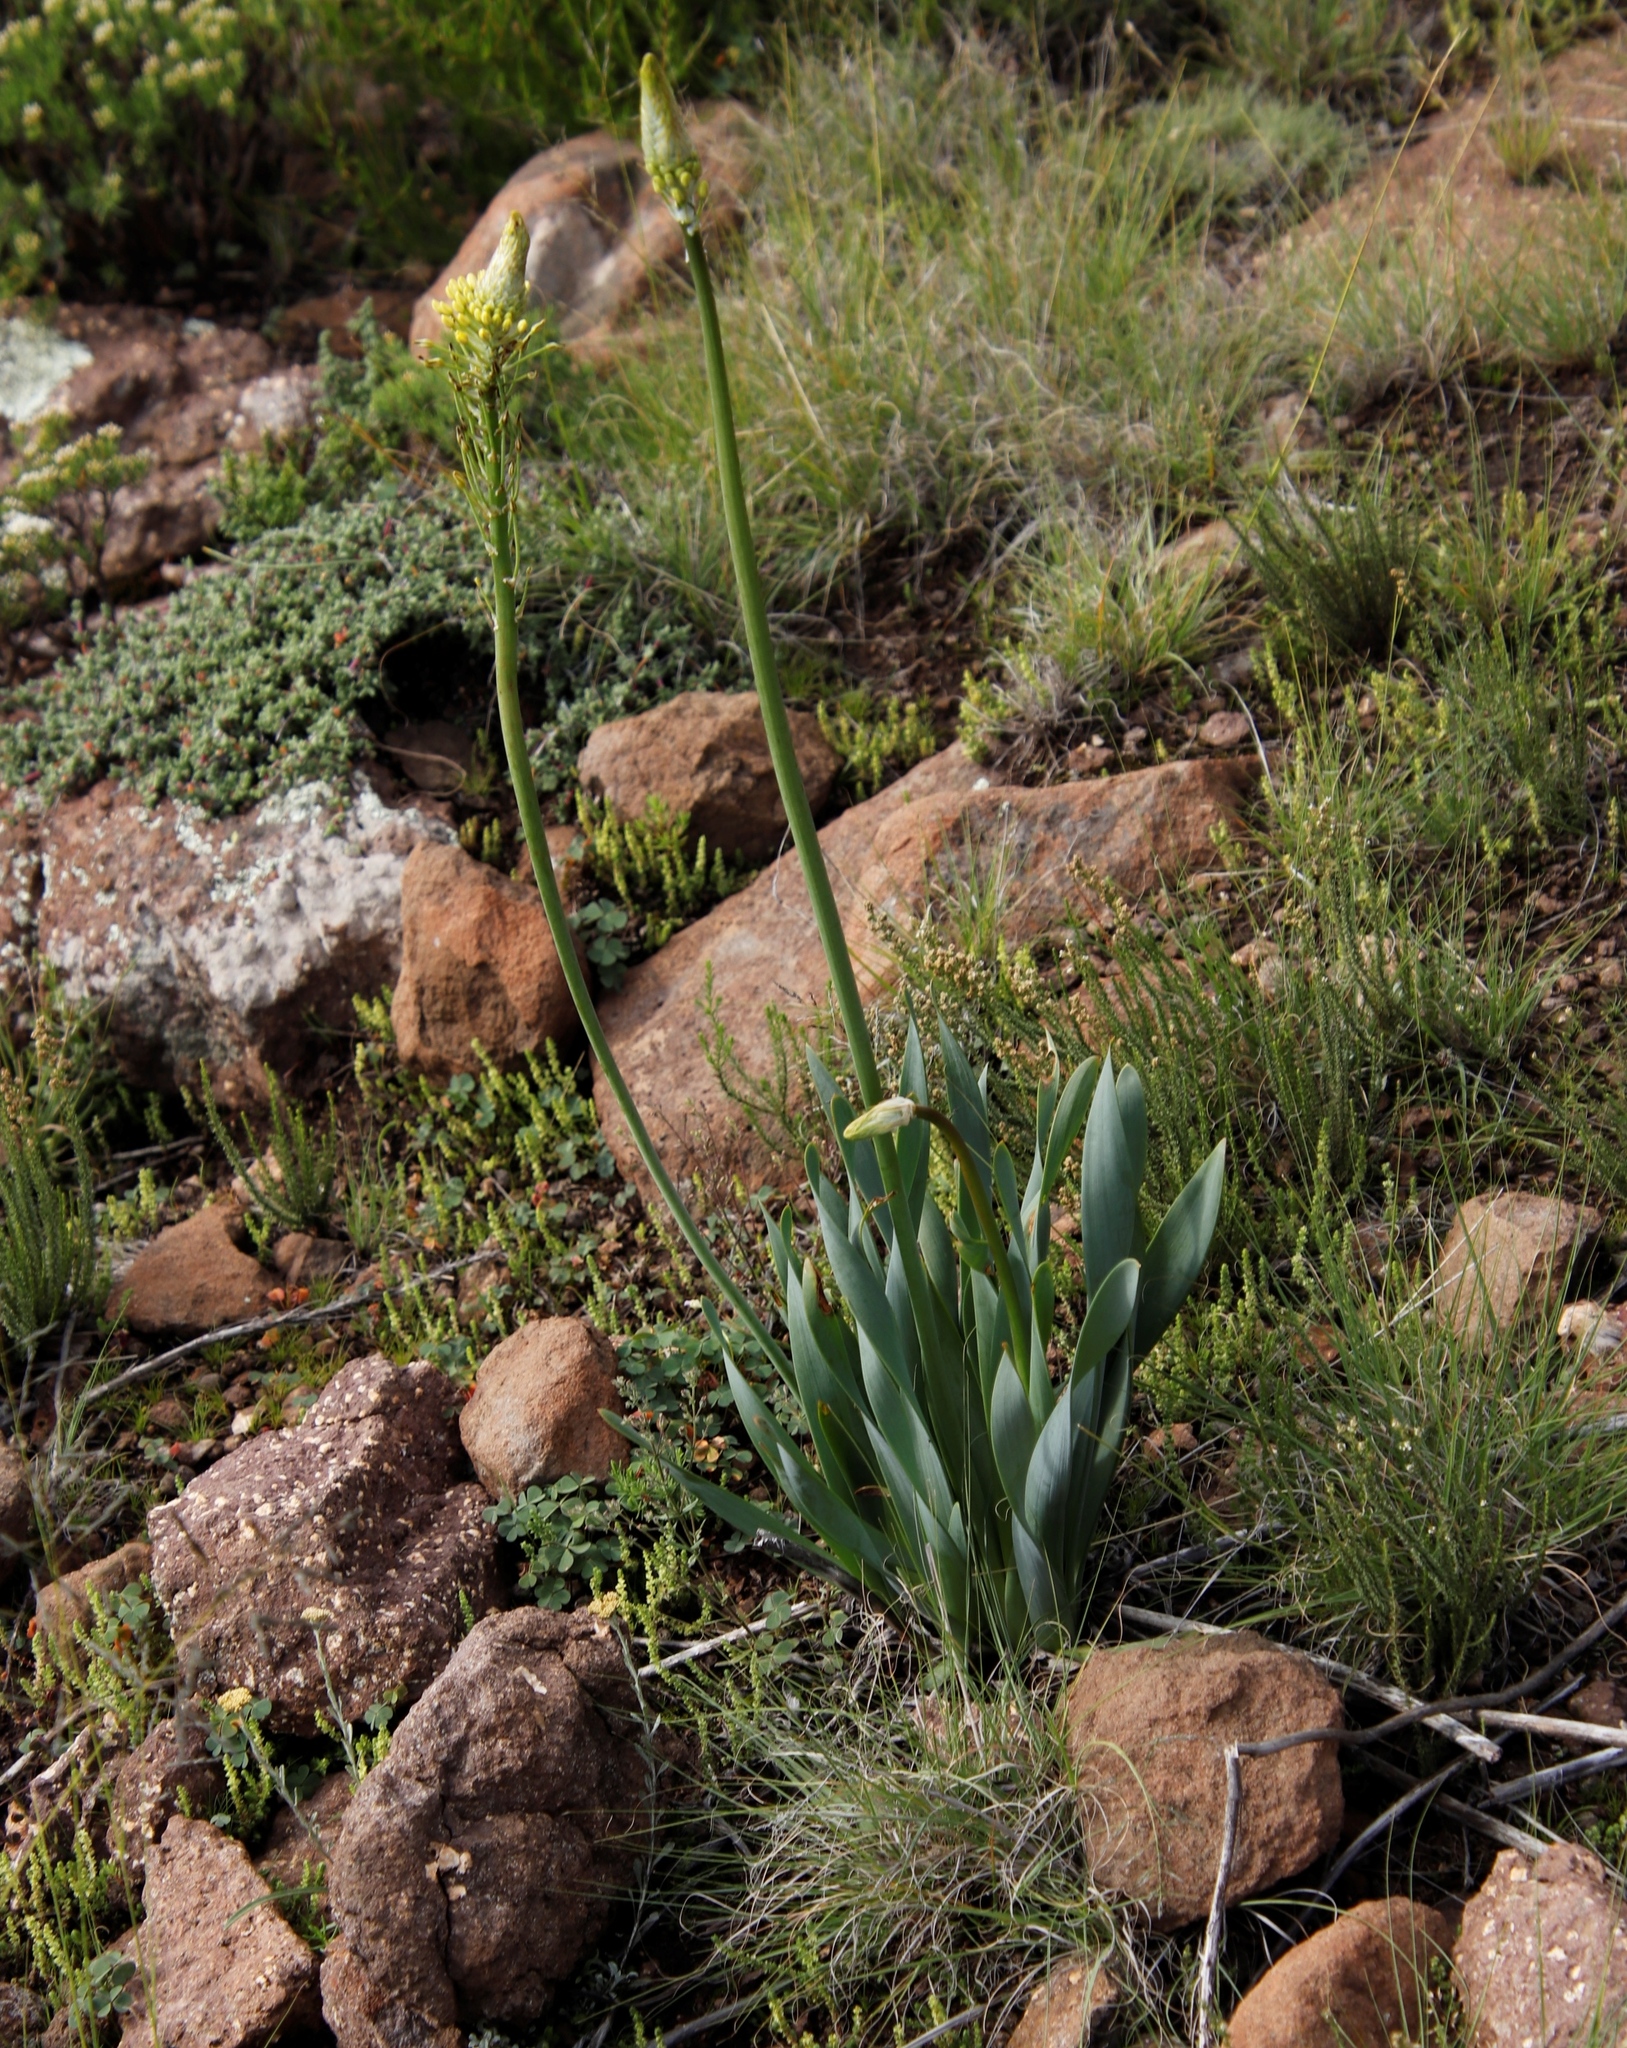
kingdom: Plantae
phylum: Tracheophyta
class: Liliopsida
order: Asparagales
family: Asphodelaceae
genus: Bulbine
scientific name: Bulbine narcissifolia
